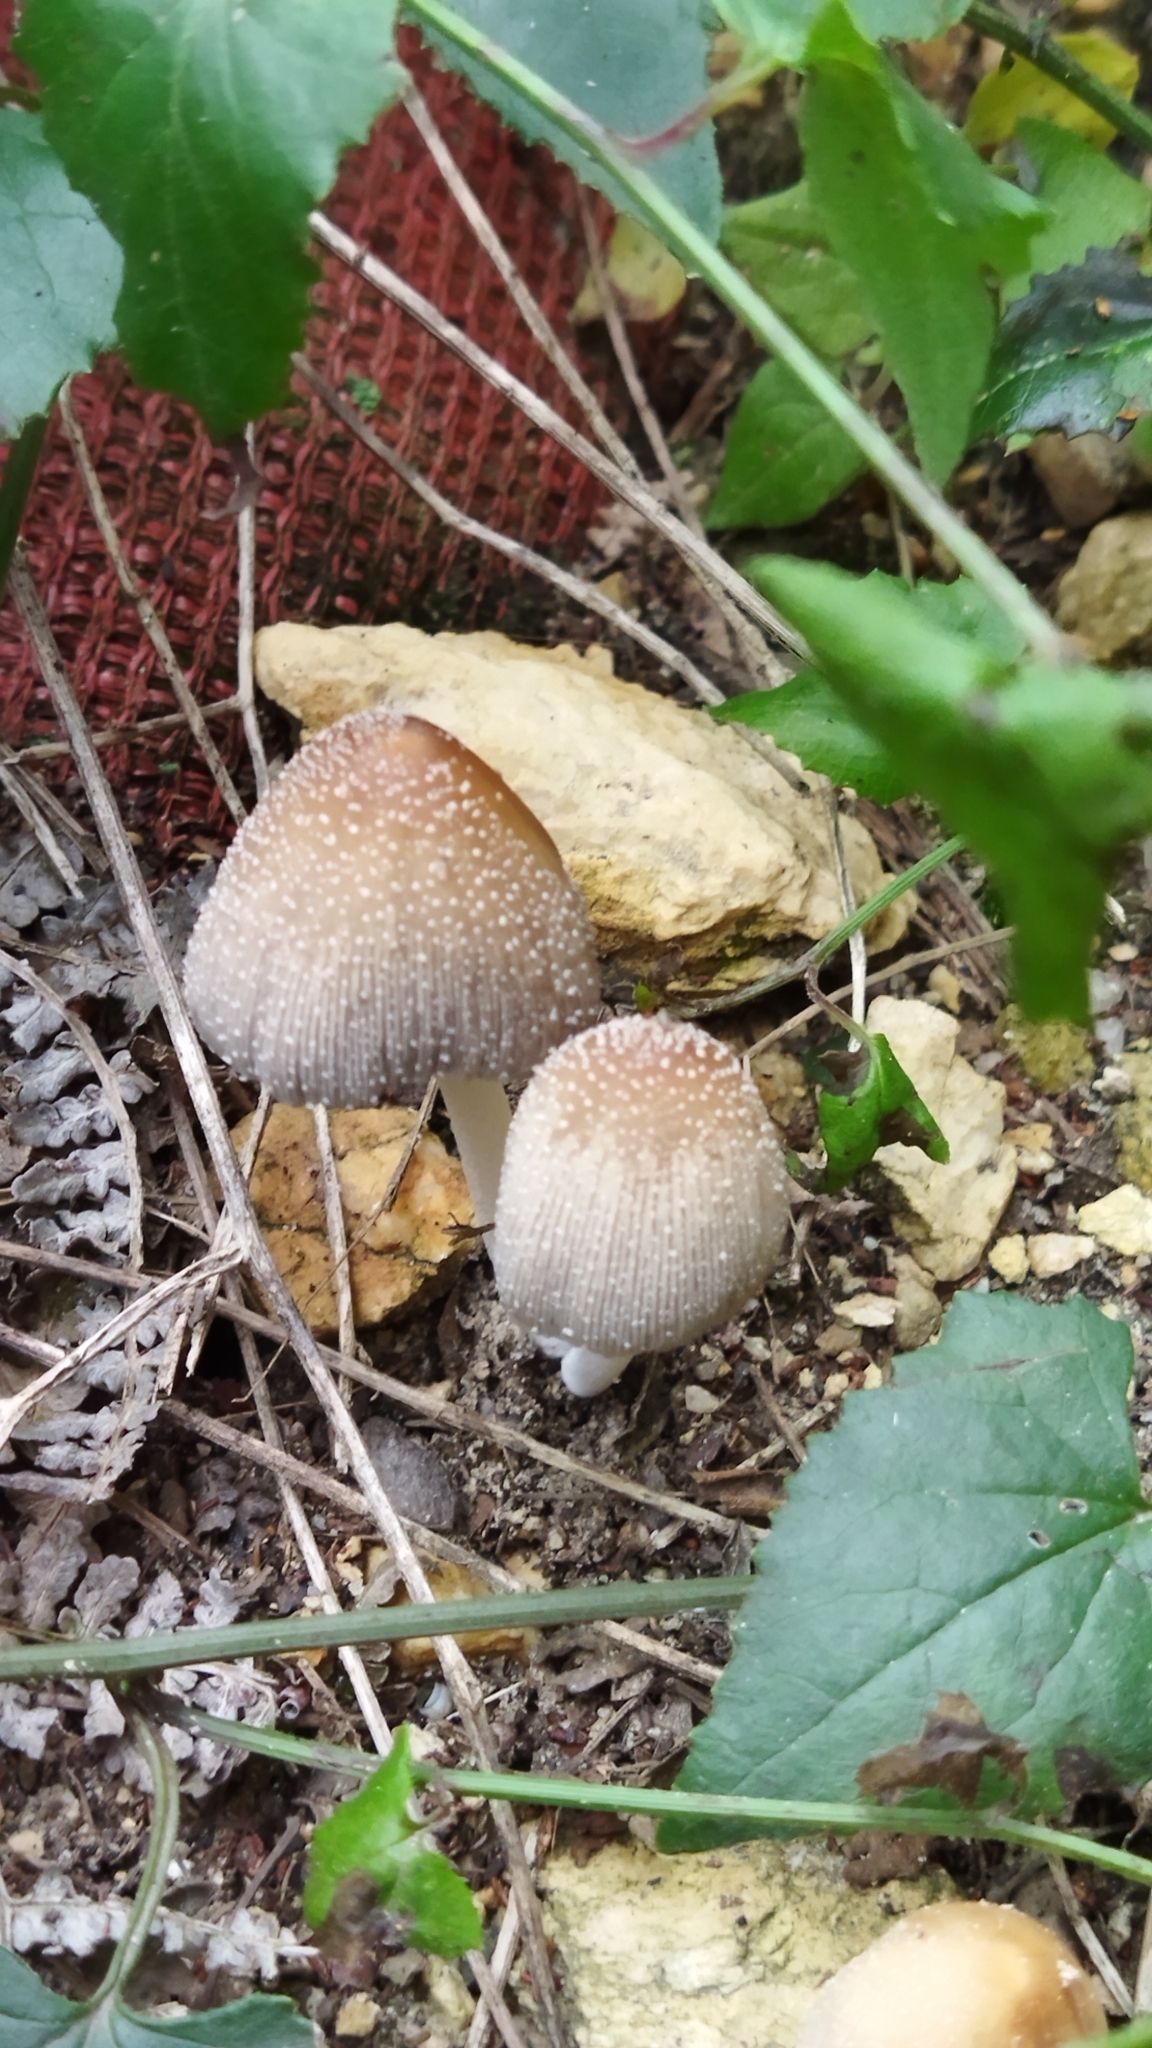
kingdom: Fungi
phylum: Basidiomycota
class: Agaricomycetes
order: Agaricales
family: Psathyrellaceae
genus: Coprinellus
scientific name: Coprinellus micaceus
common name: Glistening ink-cap
